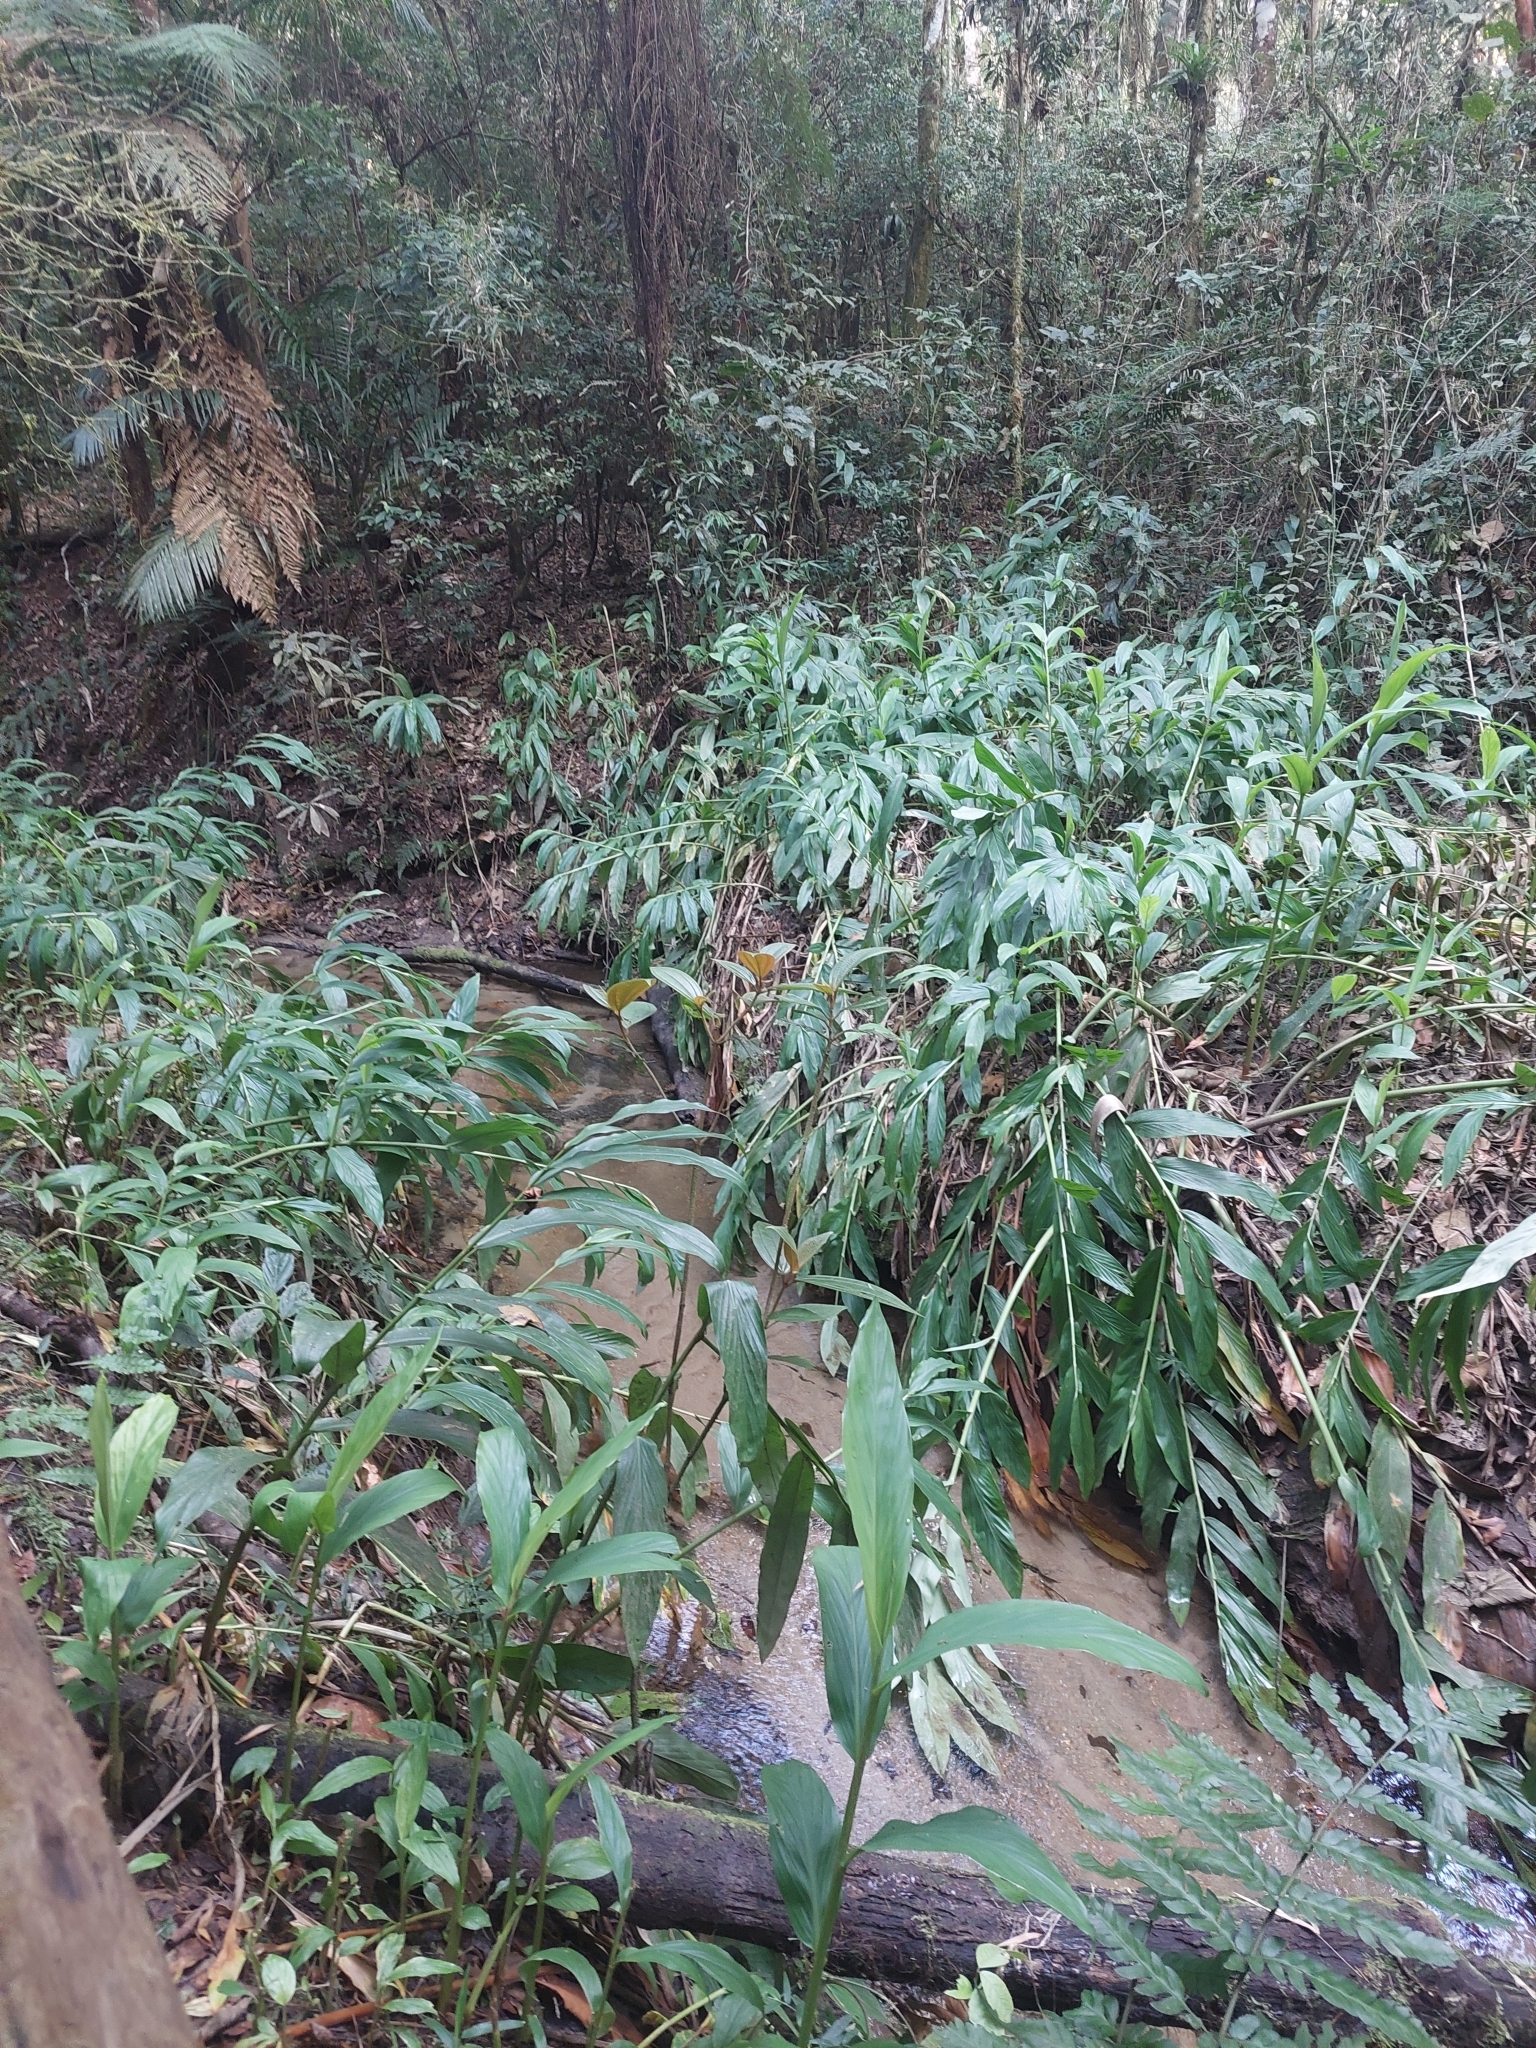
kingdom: Plantae
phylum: Tracheophyta
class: Liliopsida
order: Zingiberales
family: Zingiberaceae
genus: Hedychium
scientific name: Hedychium coronarium
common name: White garland-lily
